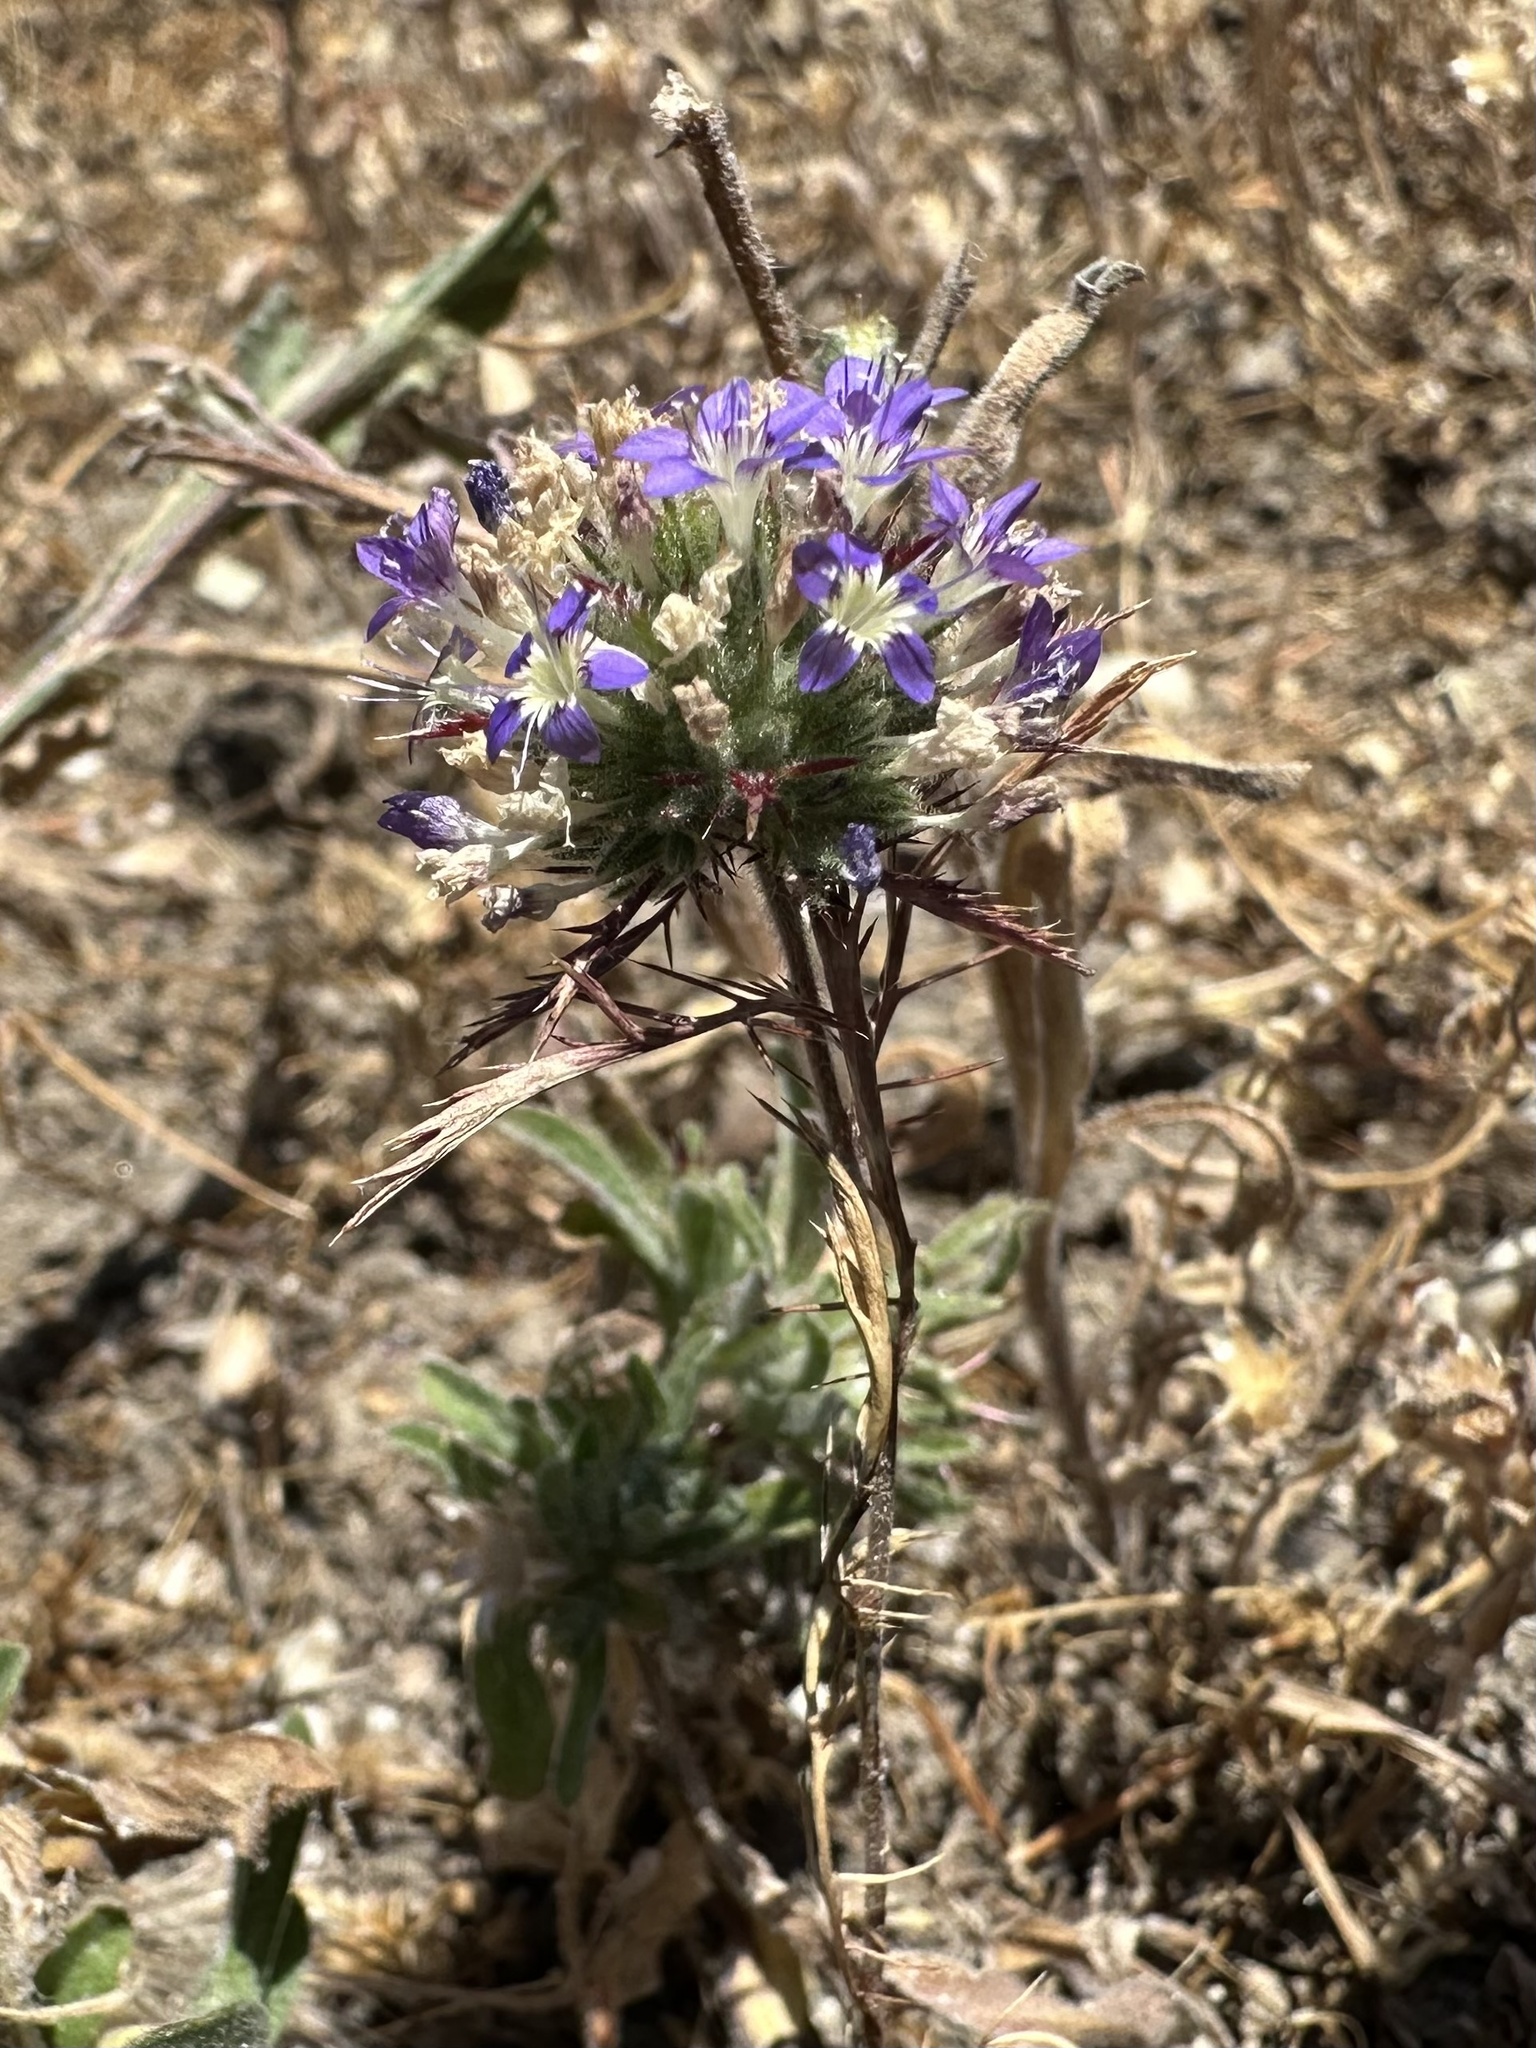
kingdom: Plantae
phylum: Tracheophyta
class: Magnoliopsida
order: Ericales
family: Polemoniaceae
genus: Navarretia
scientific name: Navarretia pubescens
